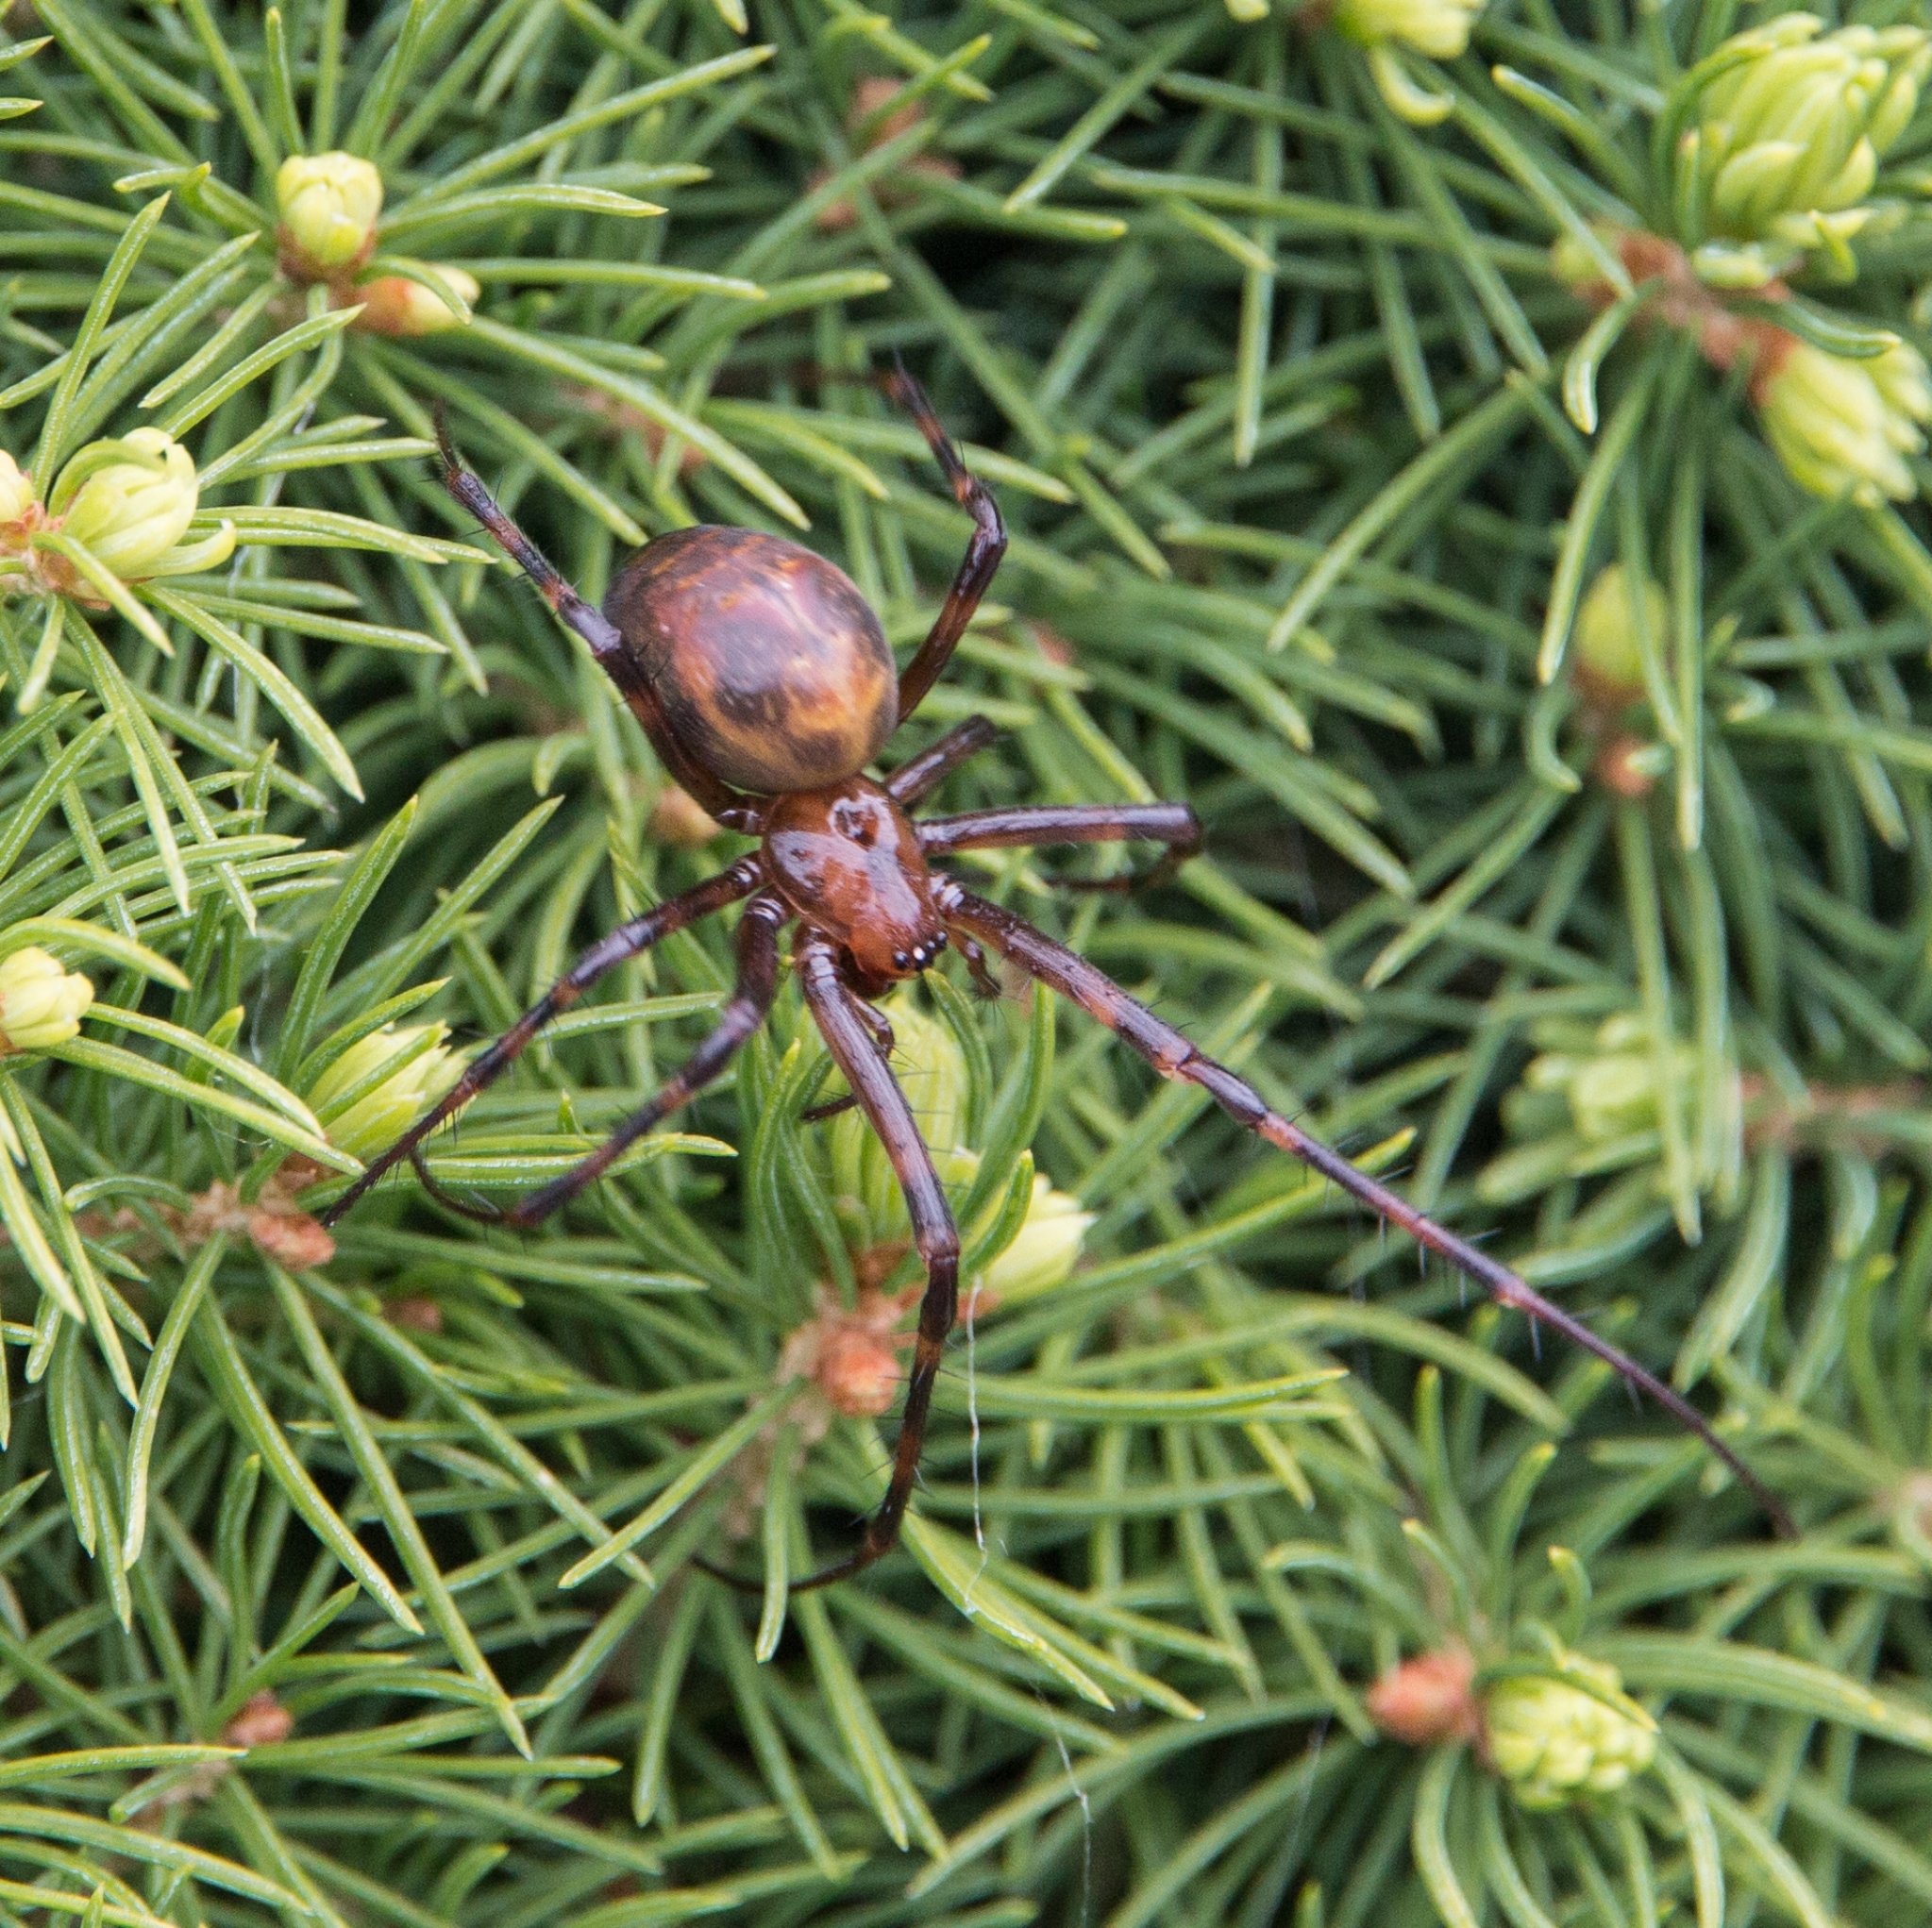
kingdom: Animalia
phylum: Arthropoda
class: Arachnida
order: Araneae
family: Tetragnathidae
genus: Meta
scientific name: Meta menardi
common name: Cave spider
